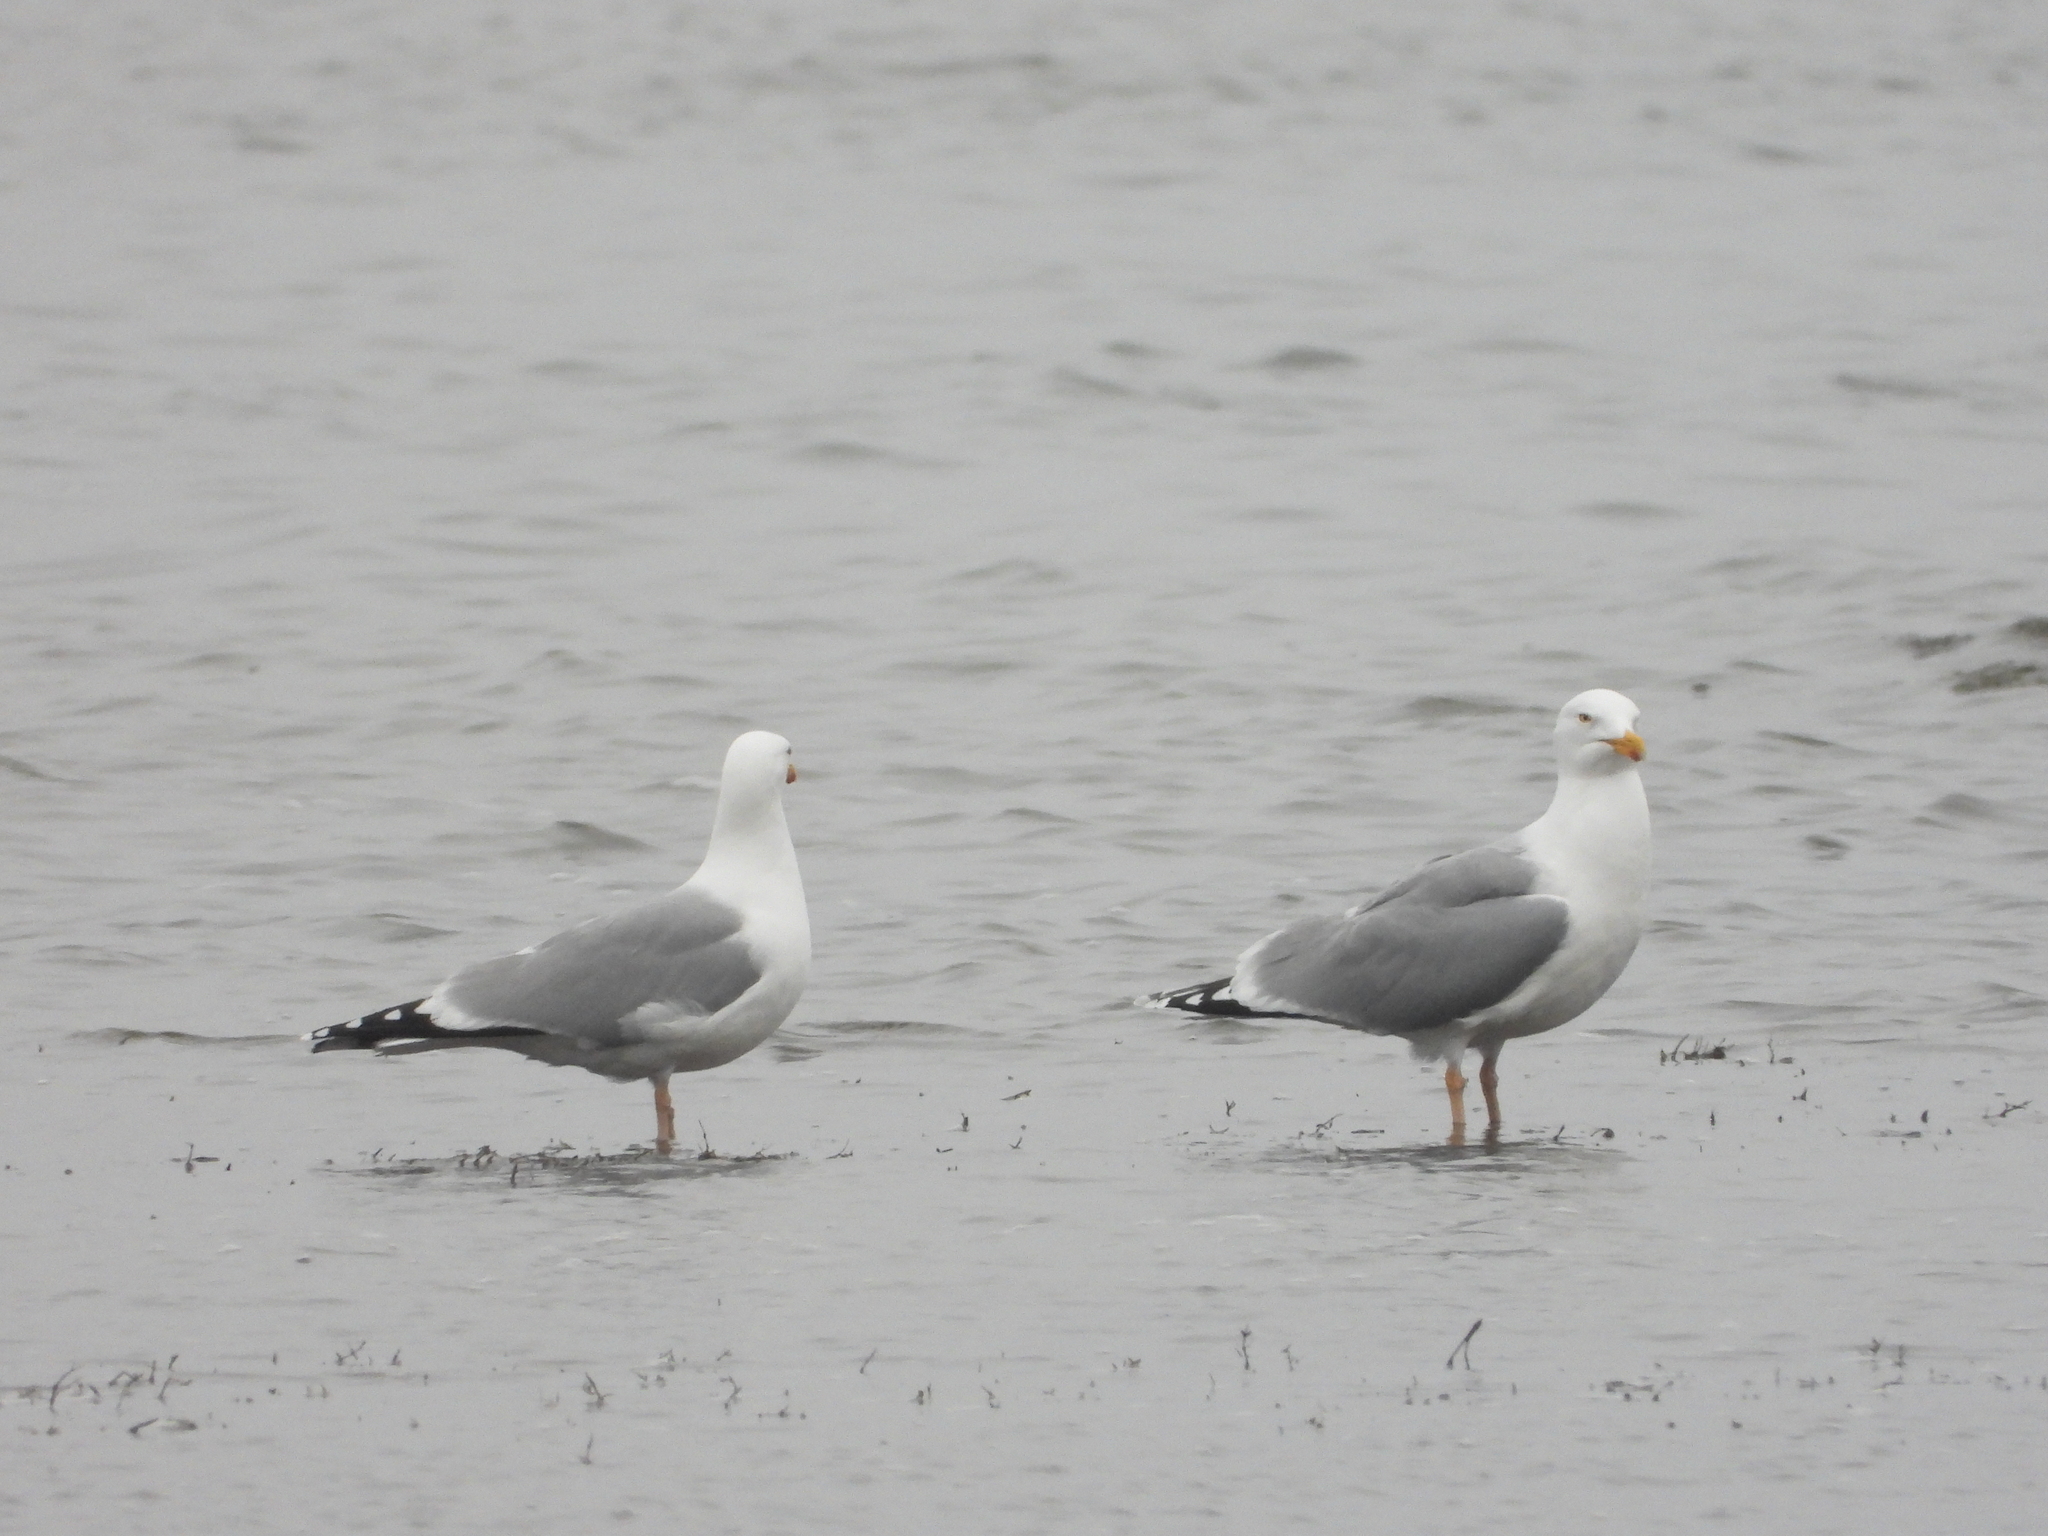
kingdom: Animalia
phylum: Chordata
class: Aves
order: Charadriiformes
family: Laridae
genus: Larus
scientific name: Larus argentatus
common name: Herring gull
